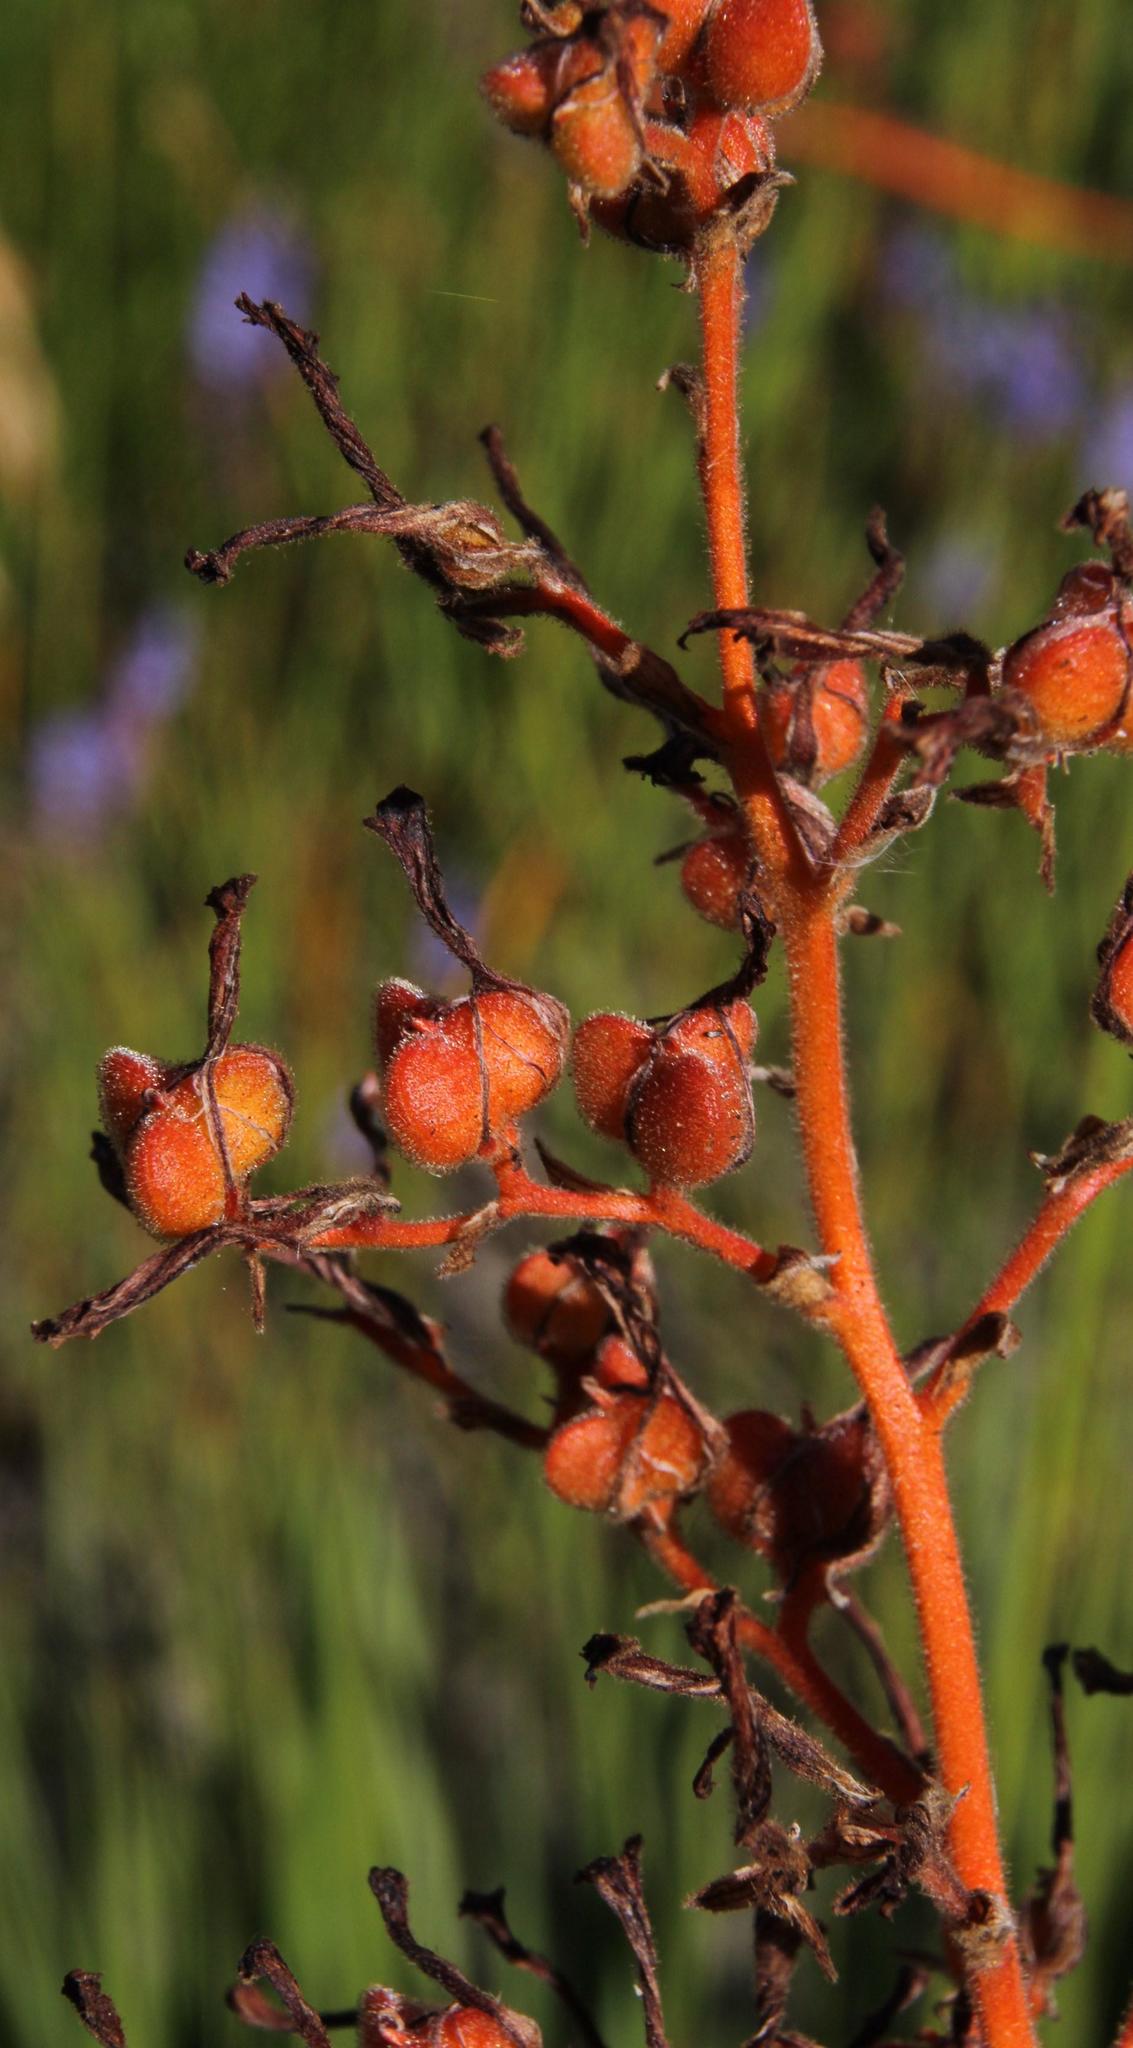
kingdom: Plantae
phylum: Tracheophyta
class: Liliopsida
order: Commelinales
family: Haemodoraceae
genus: Wachendorfia
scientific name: Wachendorfia paniculata
